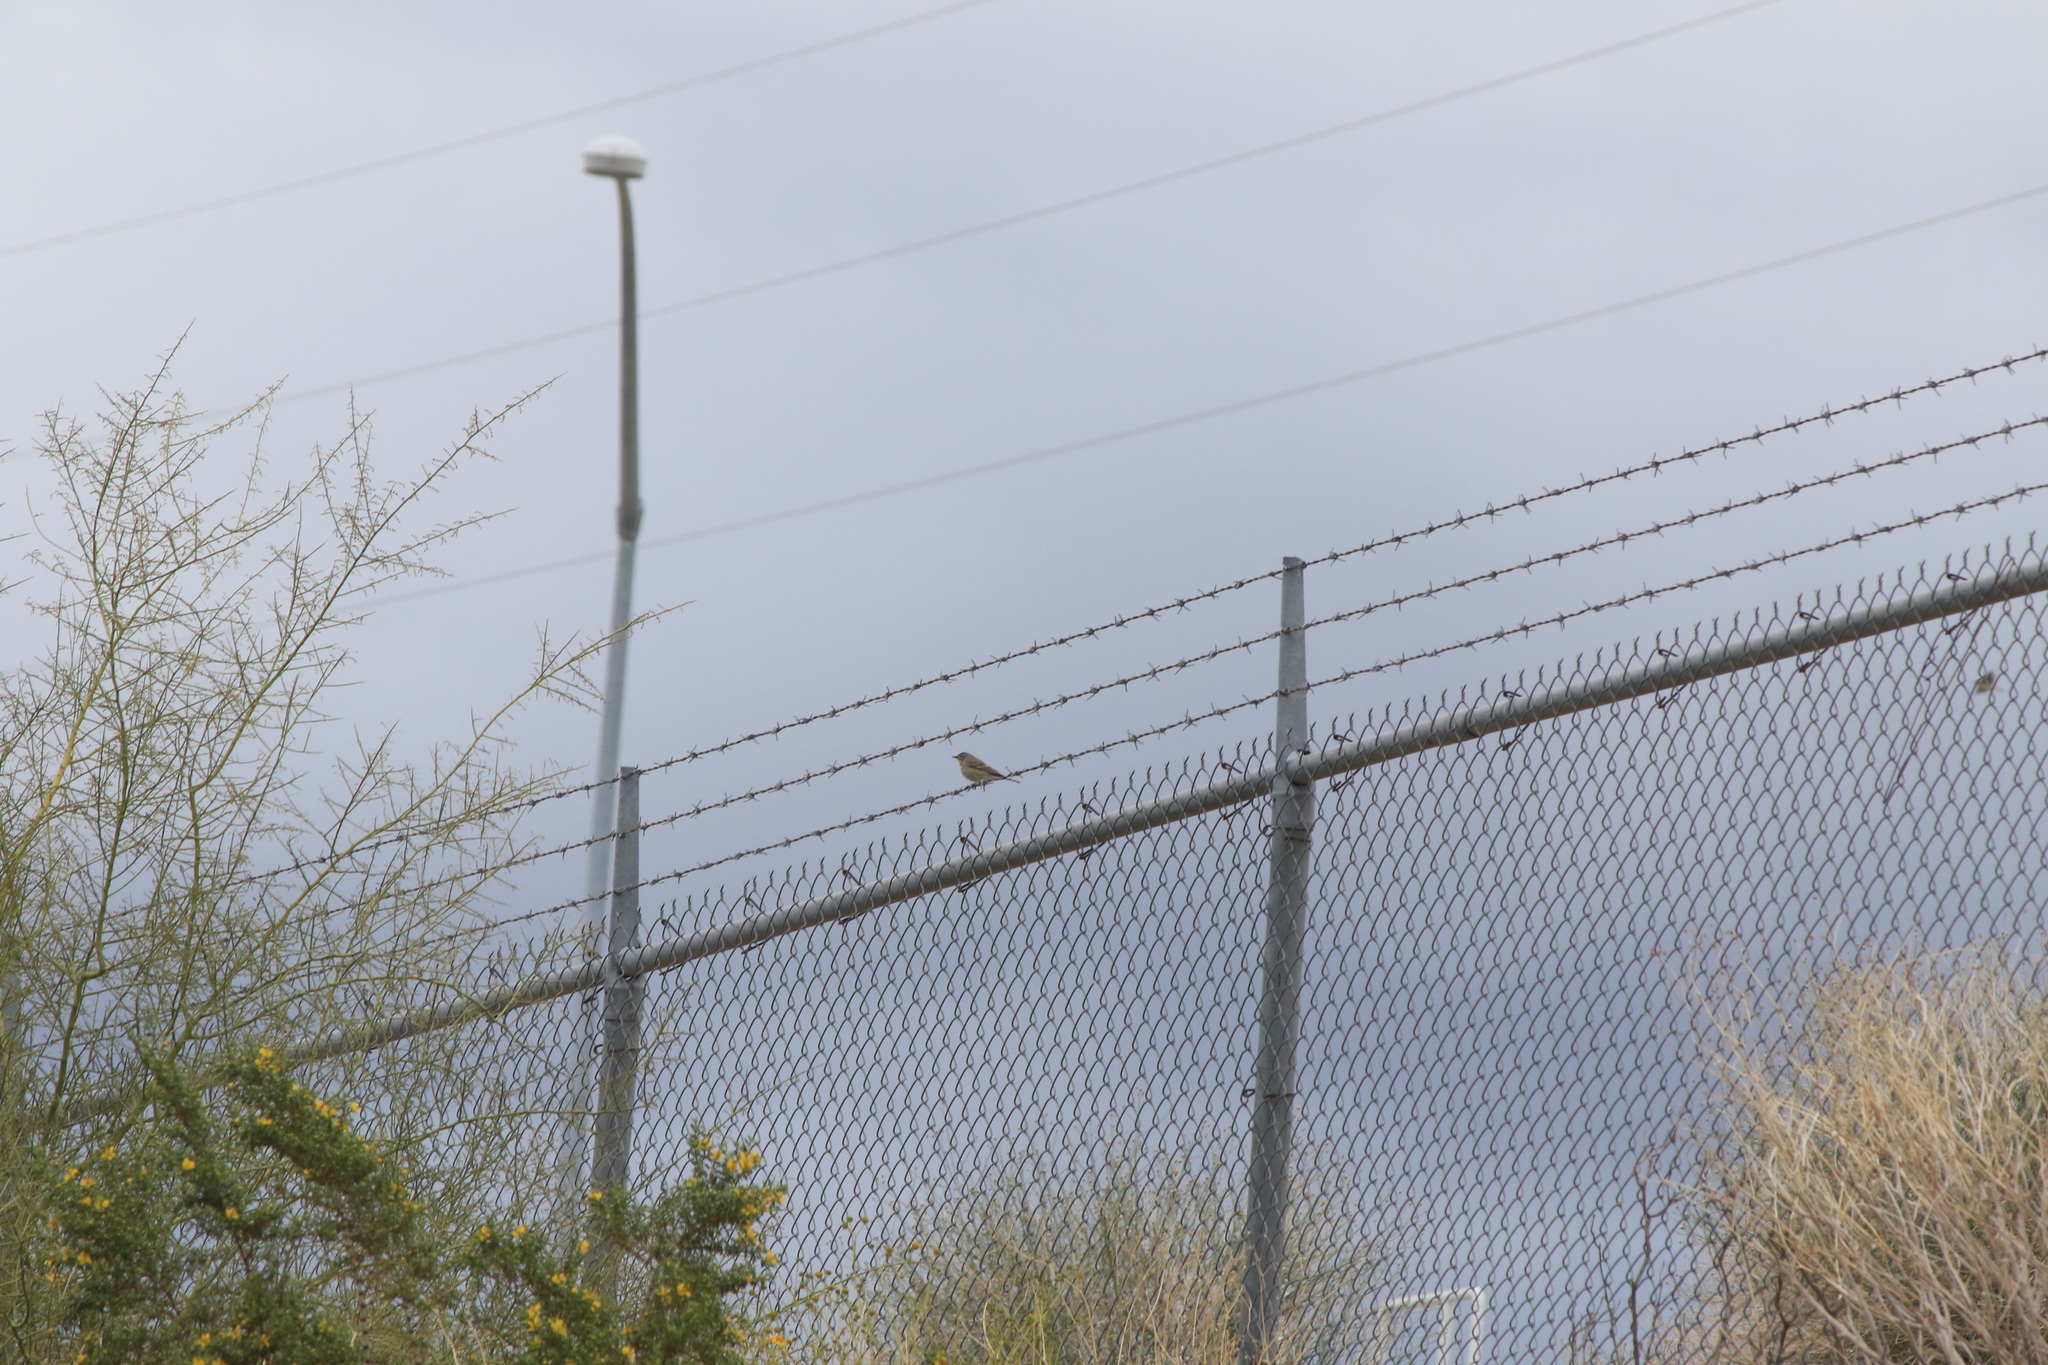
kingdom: Animalia
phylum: Chordata
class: Aves
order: Passeriformes
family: Parulidae
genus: Setophaga
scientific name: Setophaga auduboni
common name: Audubon's warbler
